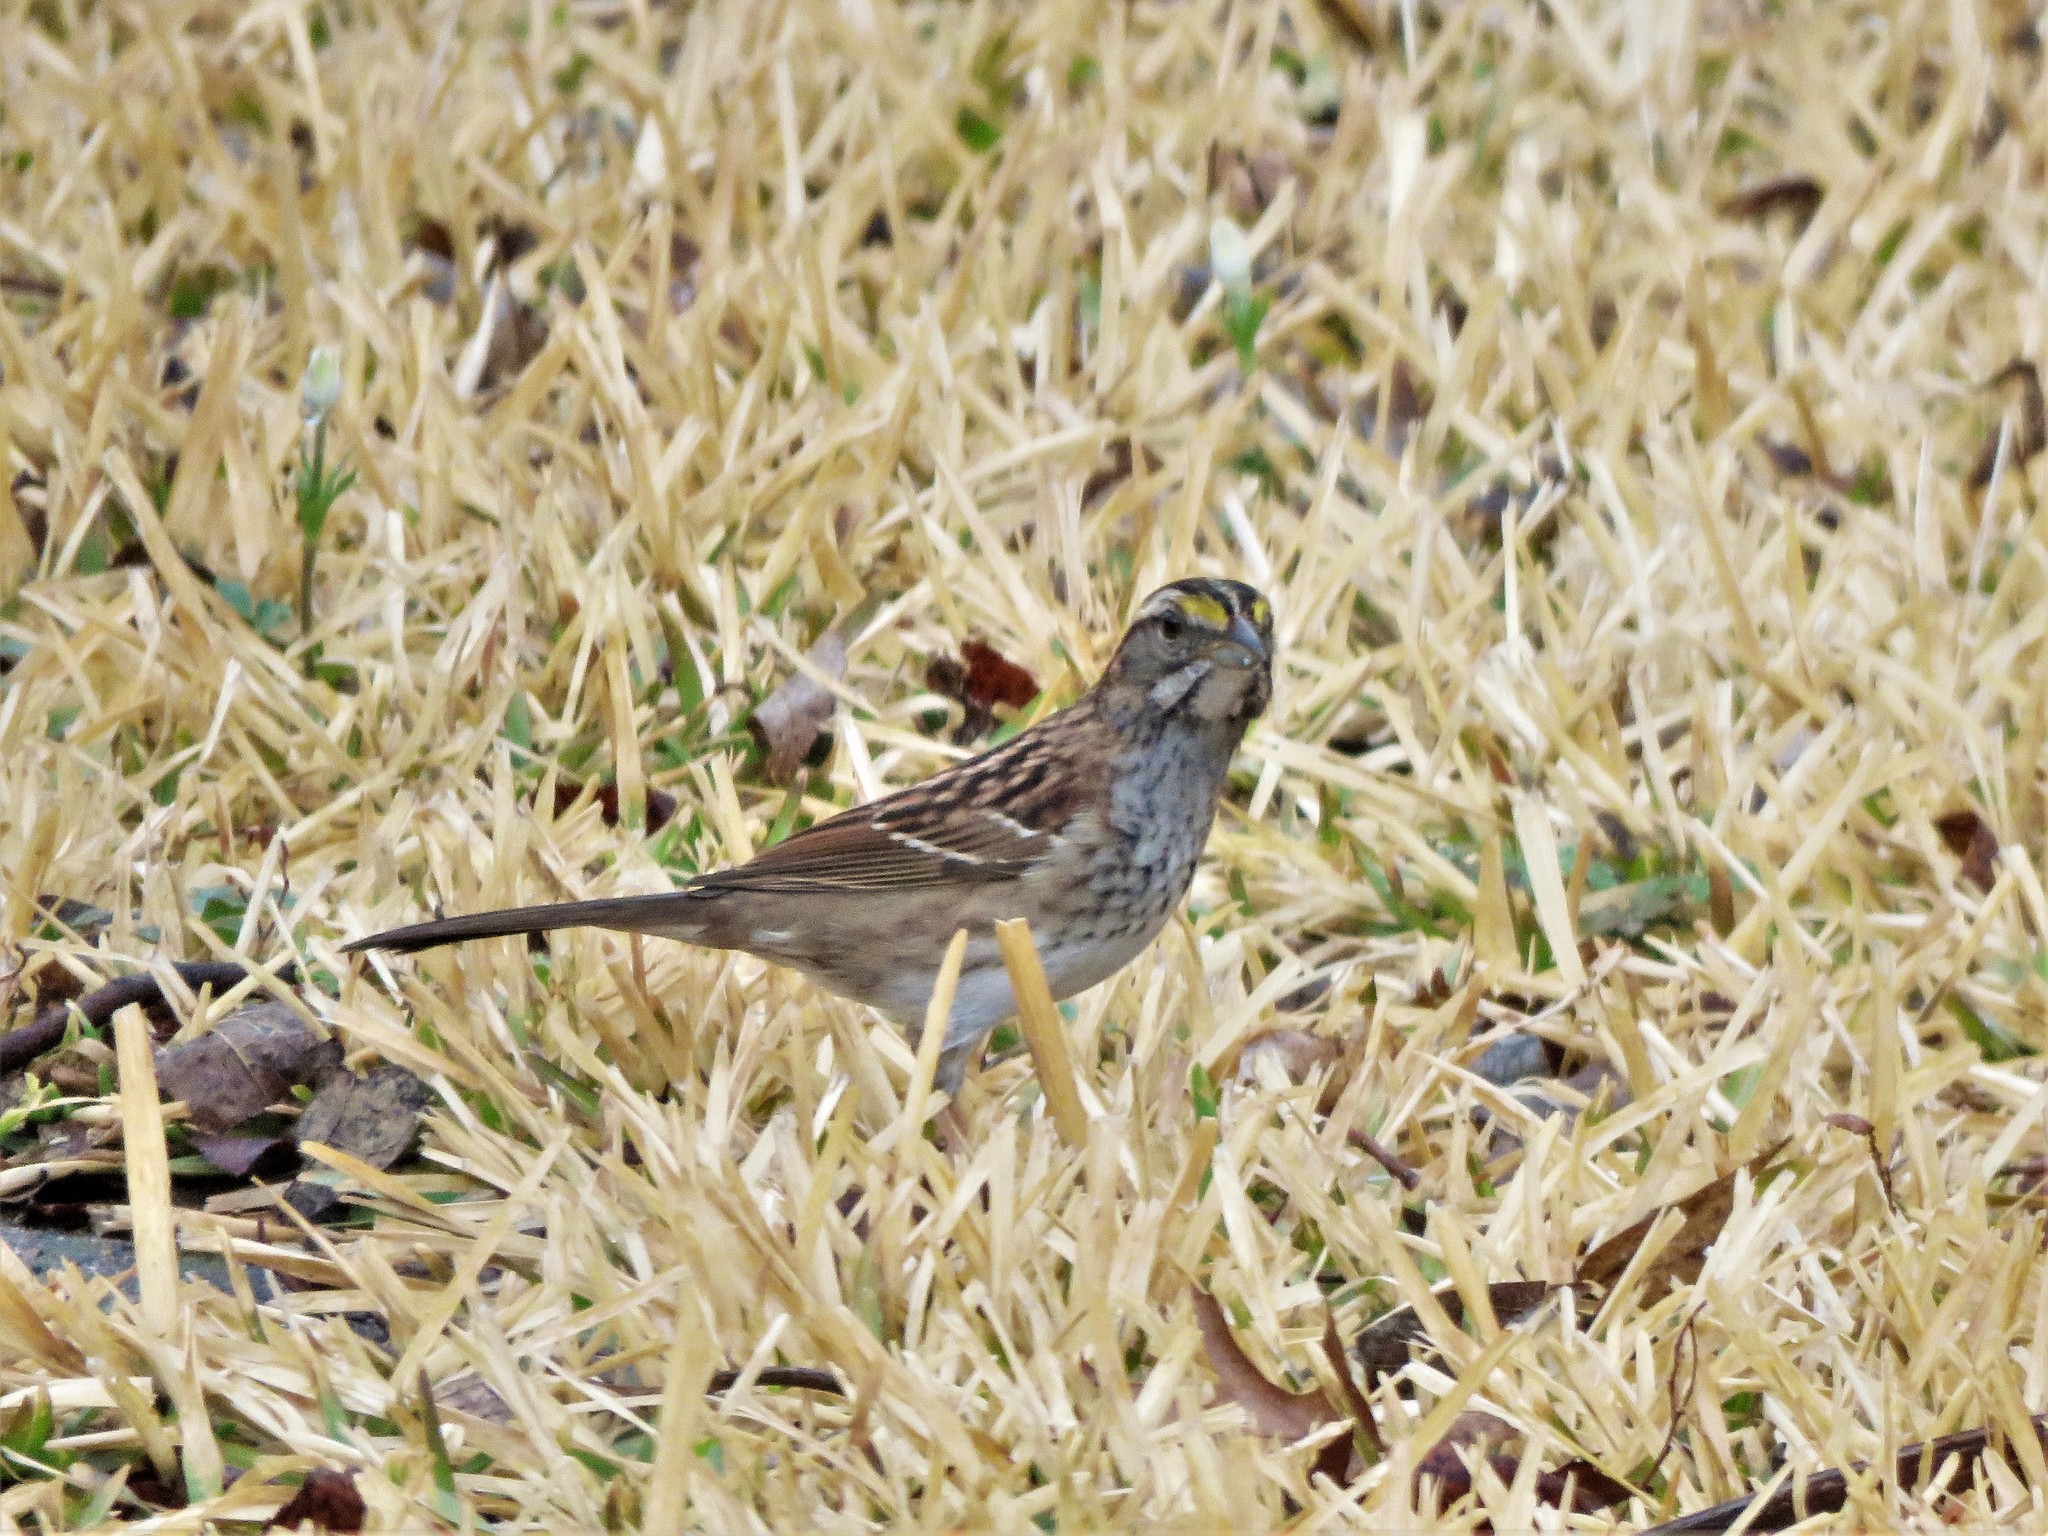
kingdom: Animalia
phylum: Chordata
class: Aves
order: Passeriformes
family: Passerellidae
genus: Zonotrichia
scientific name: Zonotrichia albicollis
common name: White-throated sparrow
